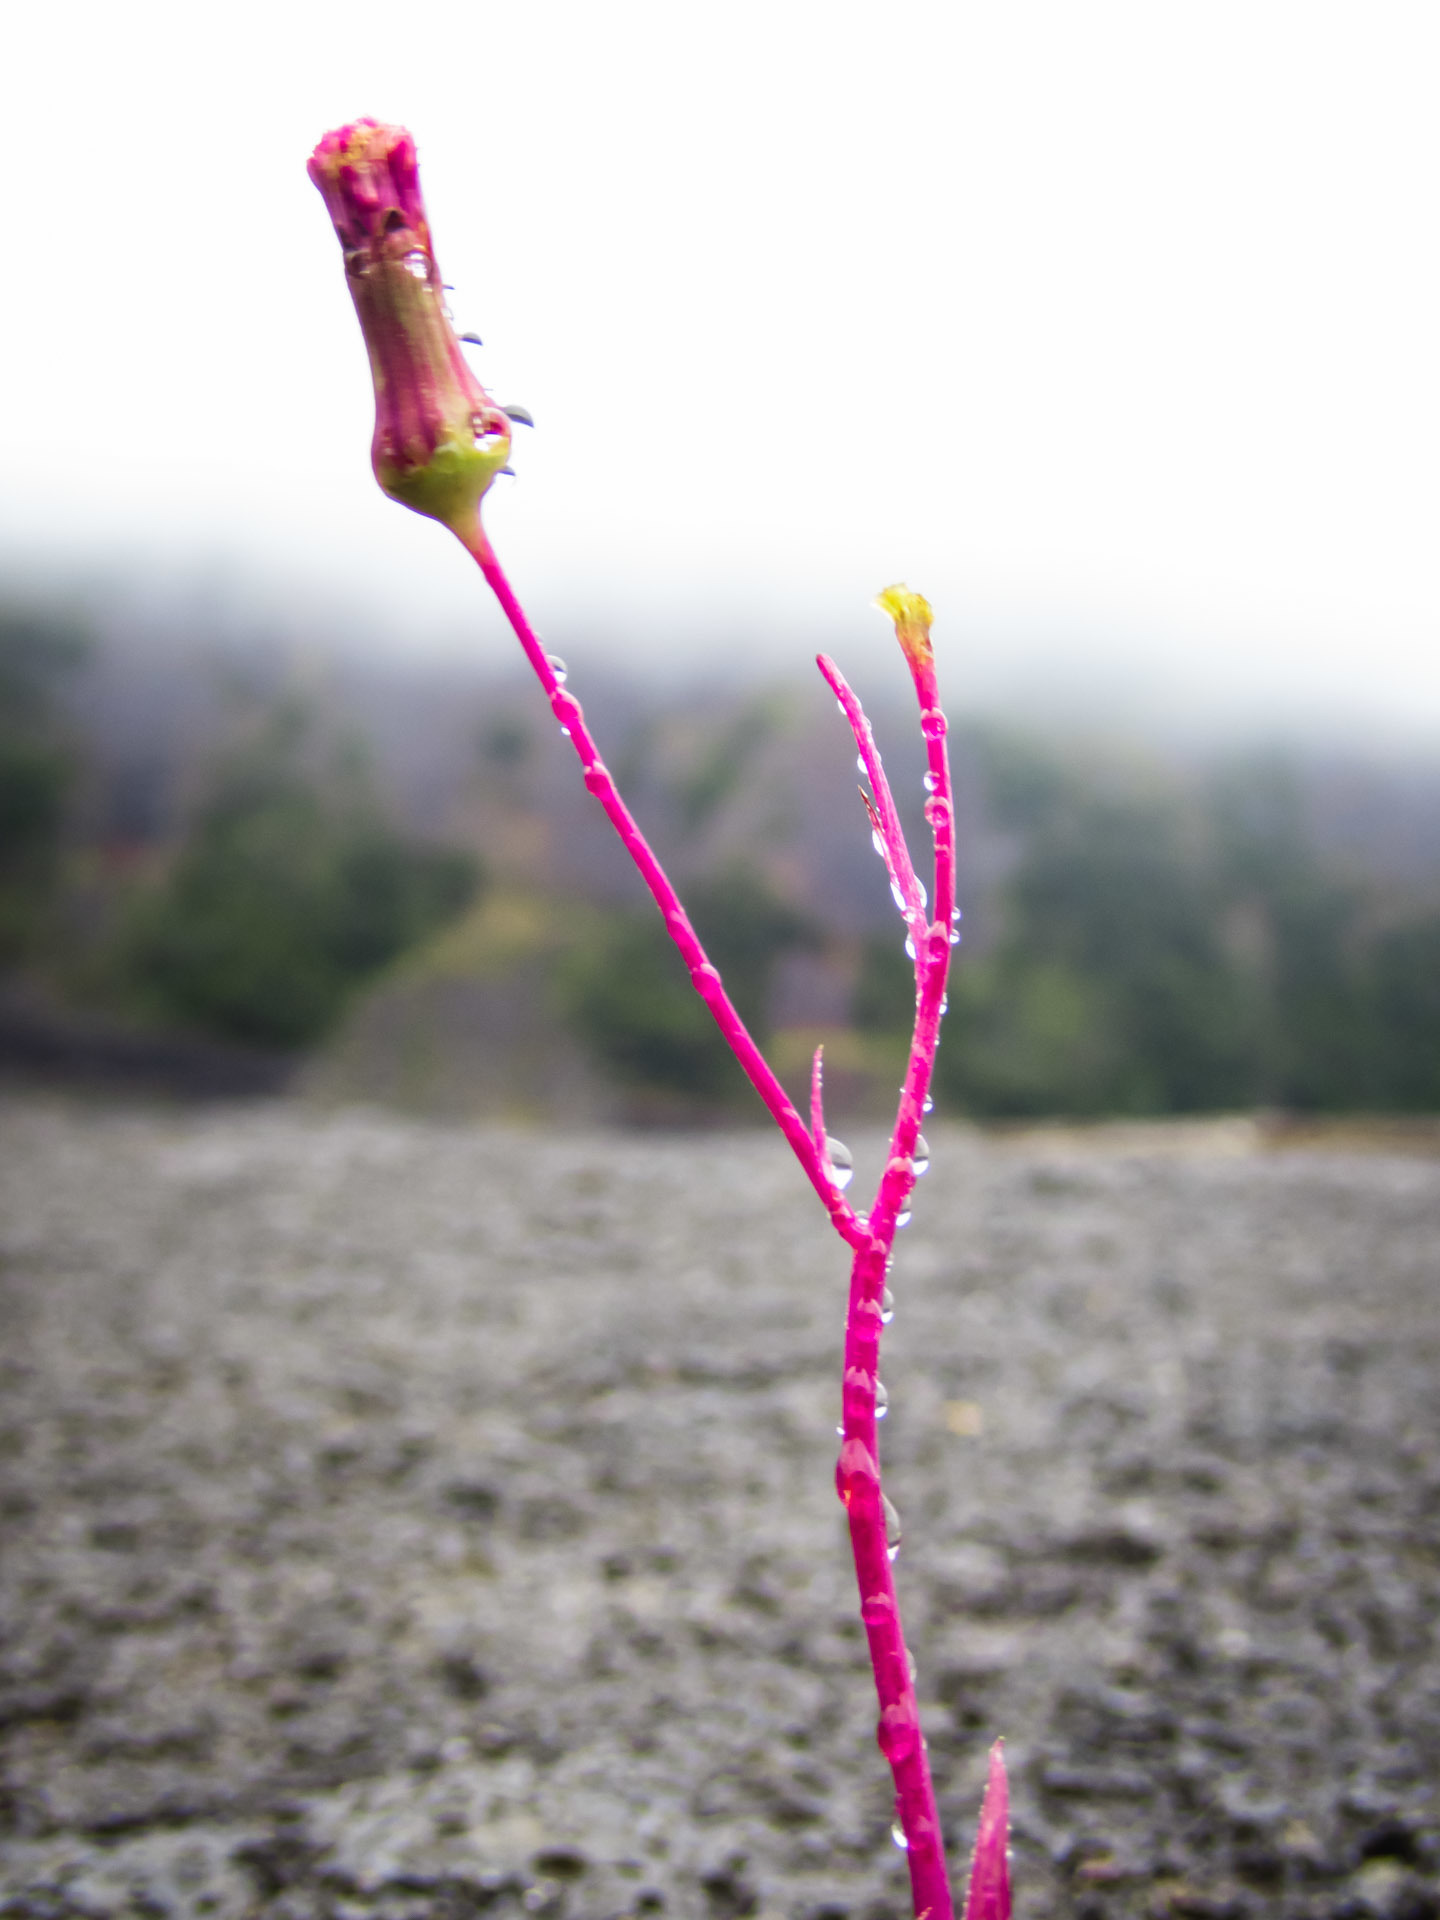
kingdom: Plantae
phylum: Tracheophyta
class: Magnoliopsida
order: Asterales
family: Asteraceae
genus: Emilia
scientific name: Emilia sonchifolia
